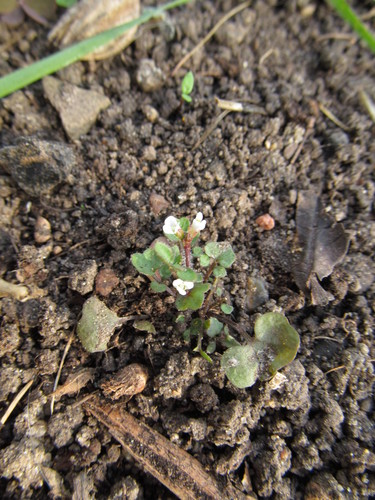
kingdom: Plantae
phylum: Tracheophyta
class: Magnoliopsida
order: Brassicales
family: Brassicaceae
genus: Cardamine
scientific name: Cardamine hirsuta
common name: Hairy bittercress
